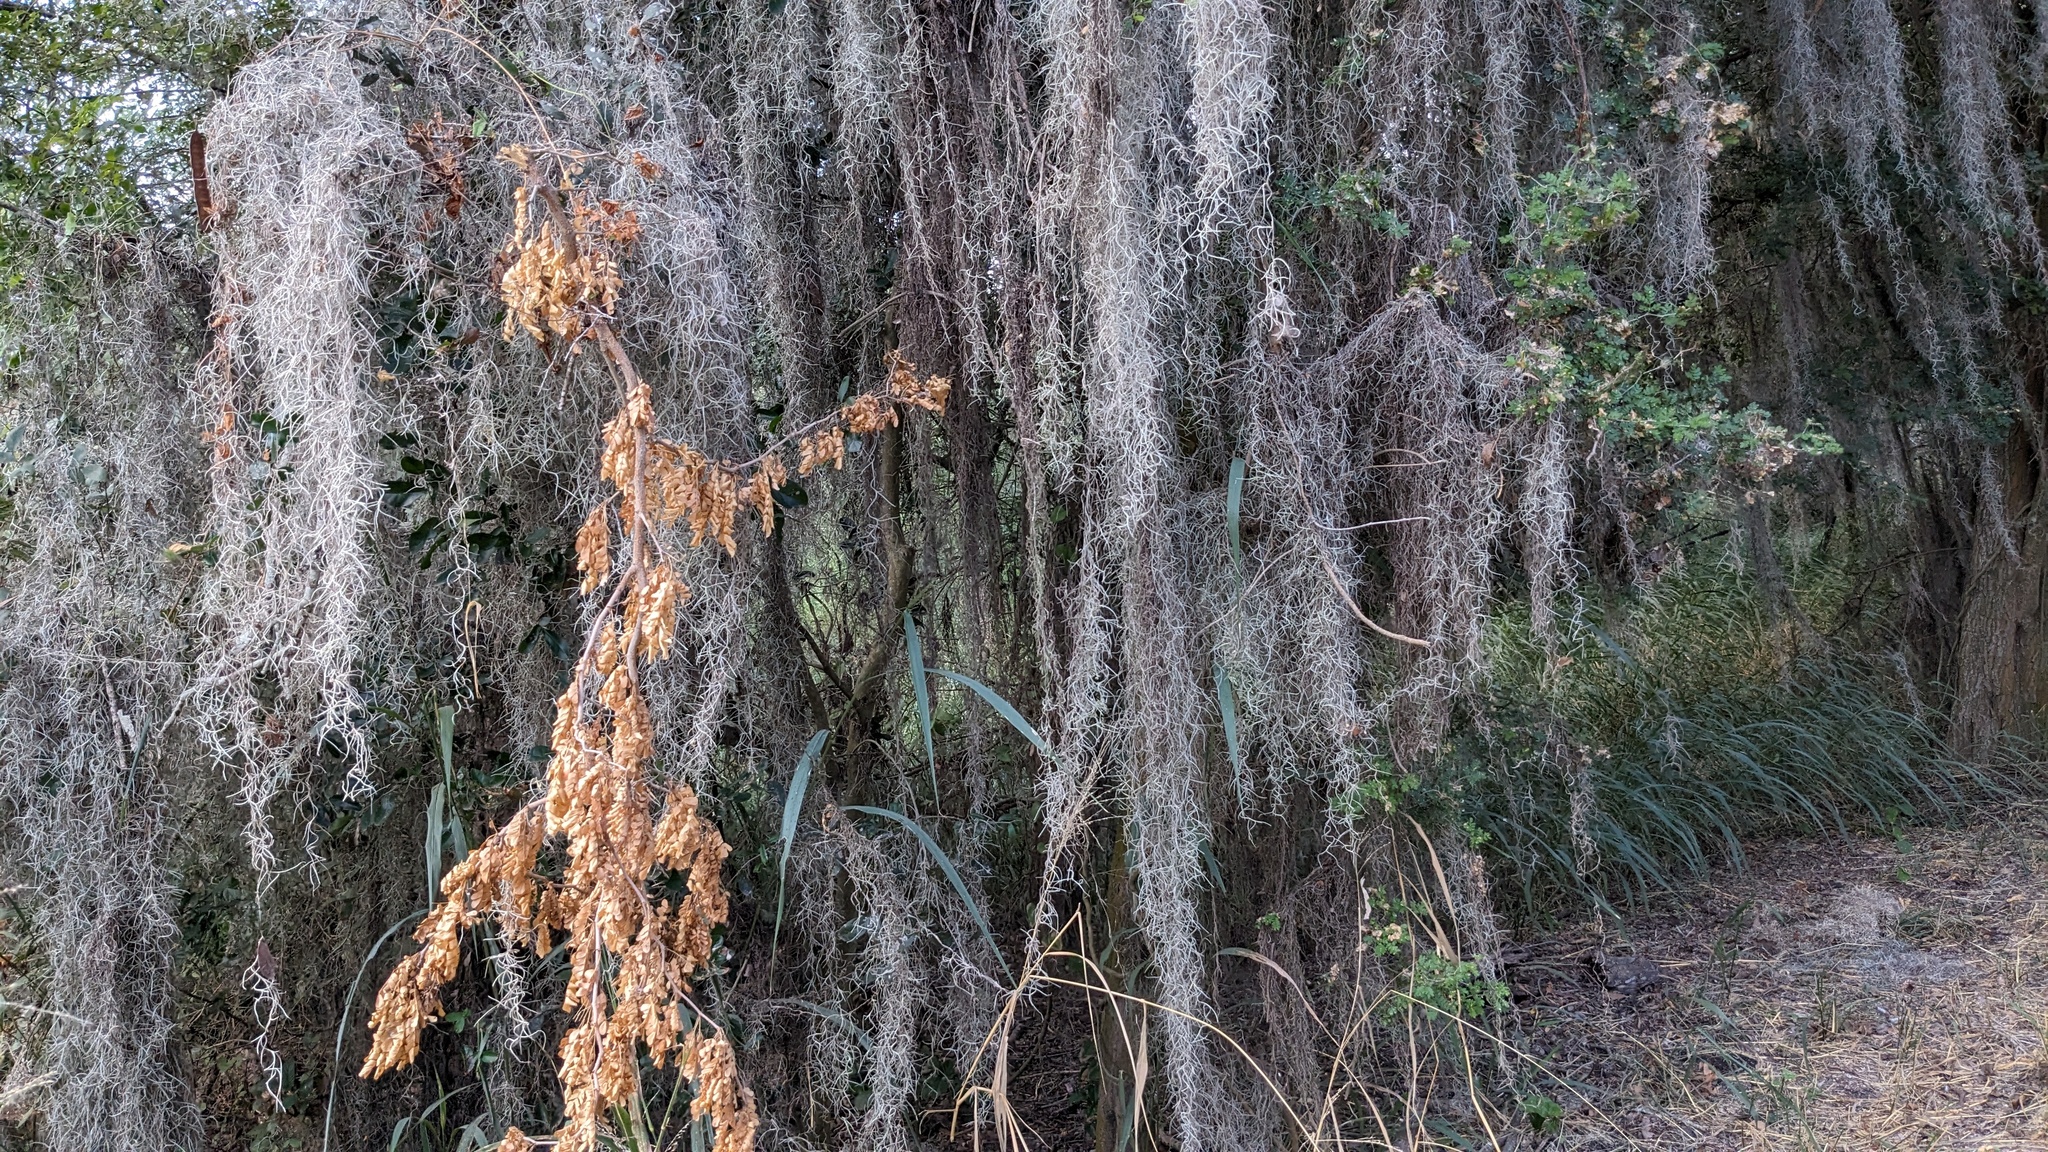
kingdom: Plantae
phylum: Tracheophyta
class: Liliopsida
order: Poales
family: Bromeliaceae
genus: Tillandsia
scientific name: Tillandsia usneoides
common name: Spanish moss
